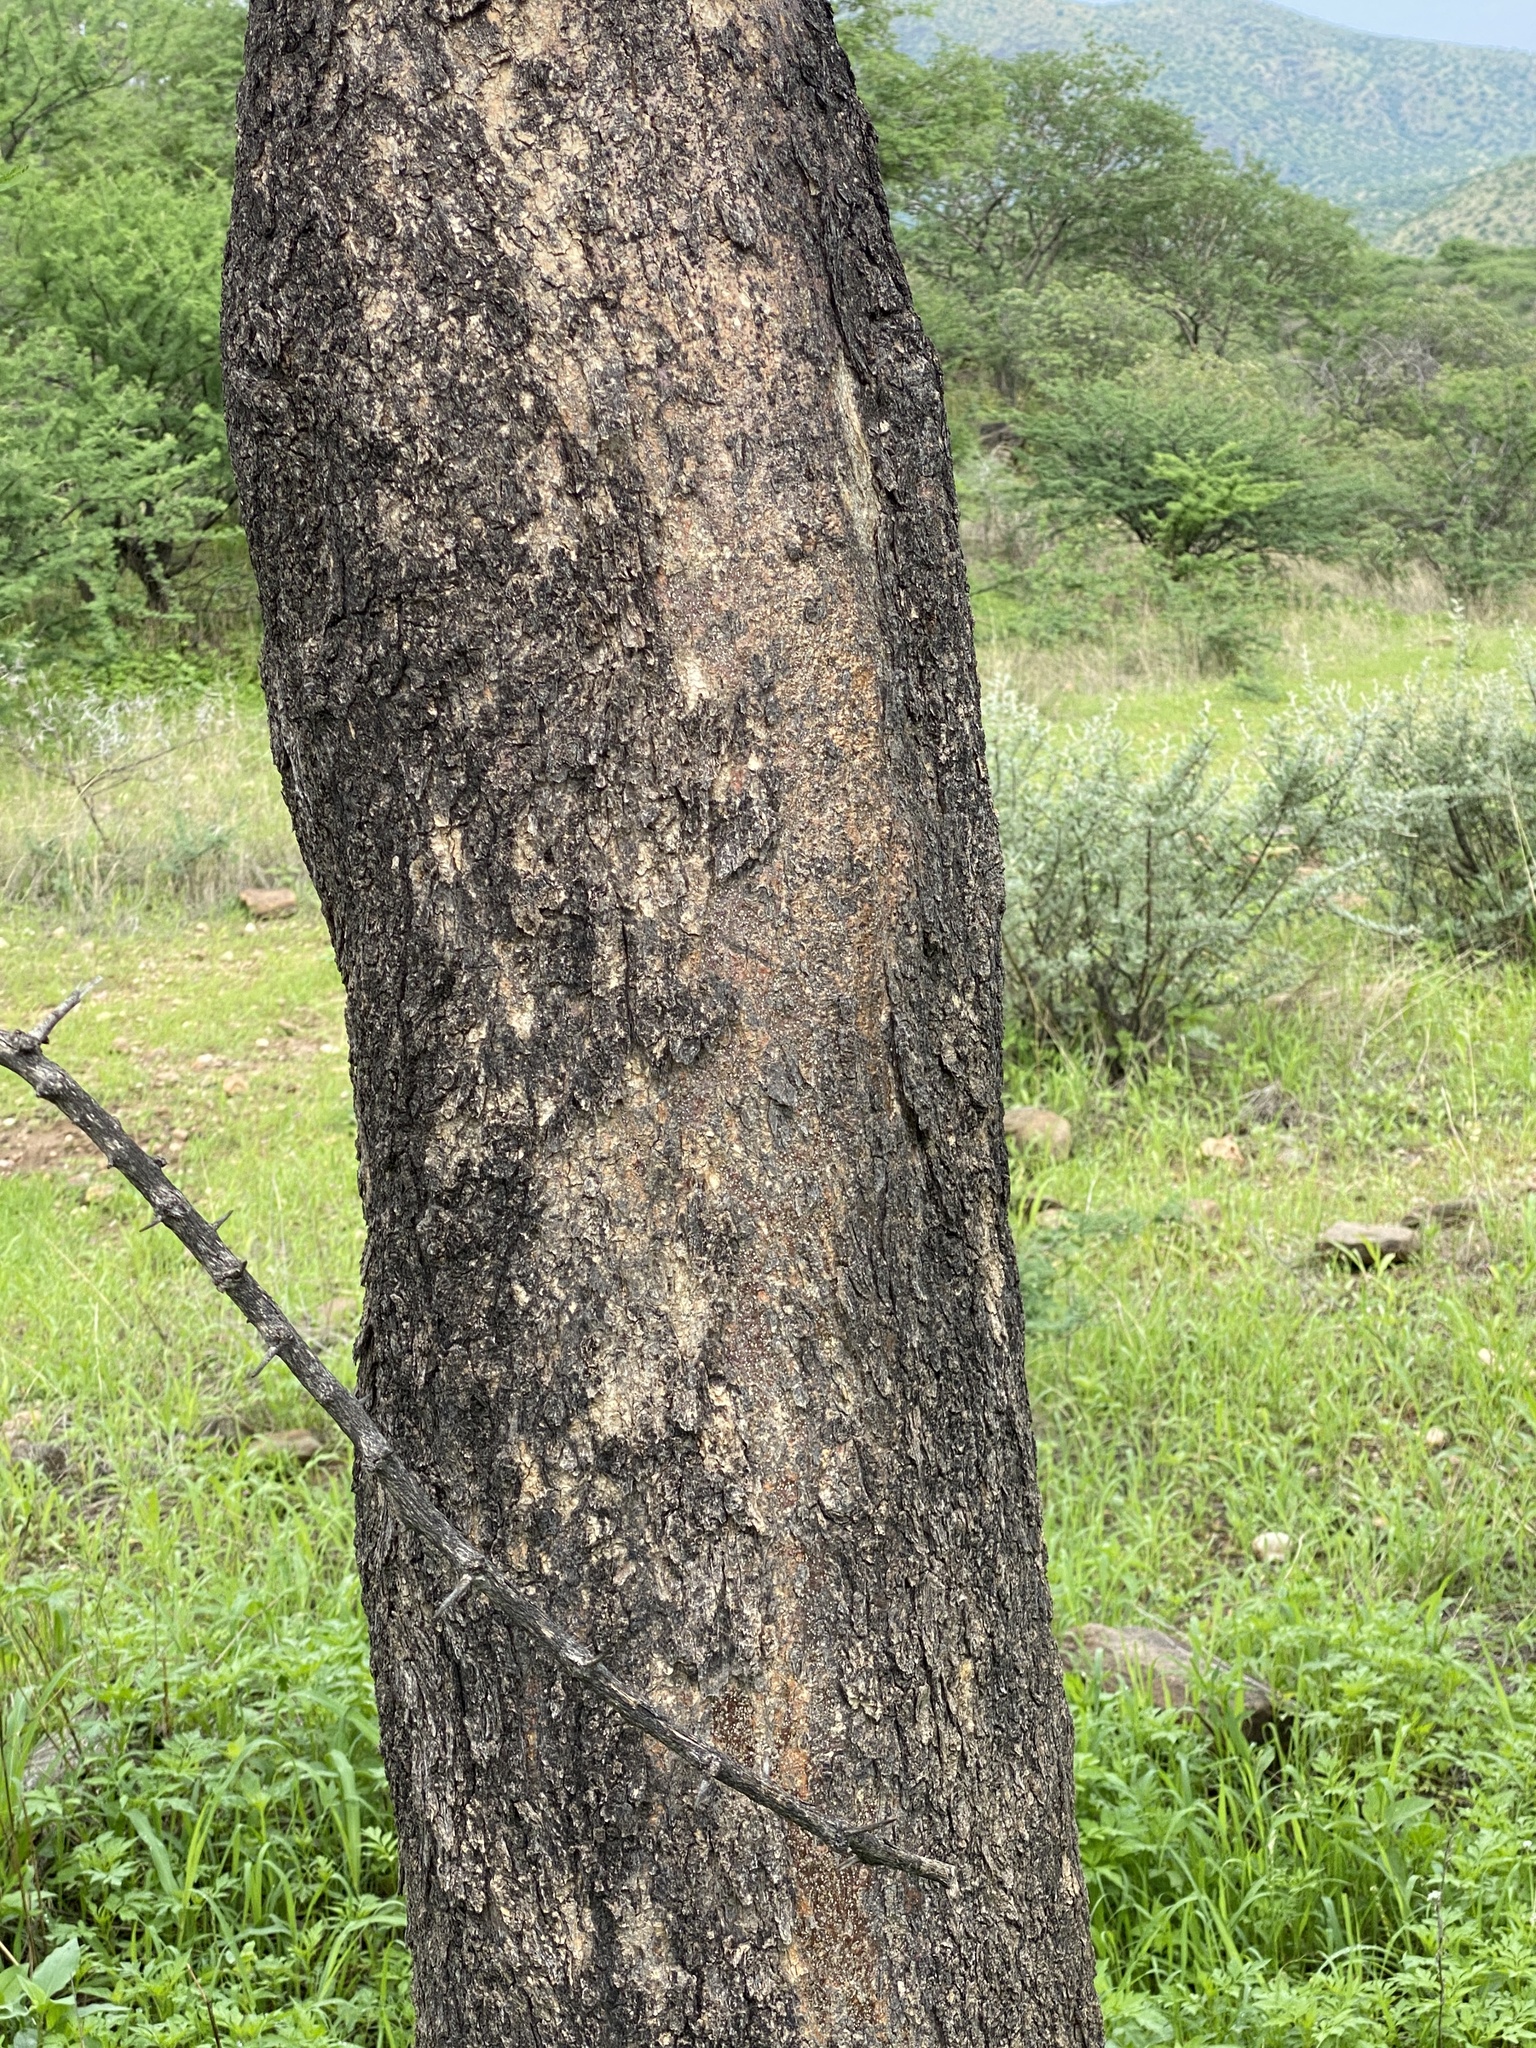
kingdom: Plantae
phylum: Tracheophyta
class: Magnoliopsida
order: Fabales
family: Fabaceae
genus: Albizia
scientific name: Albizia anthelmintica
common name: Worm-bark false-thorn
